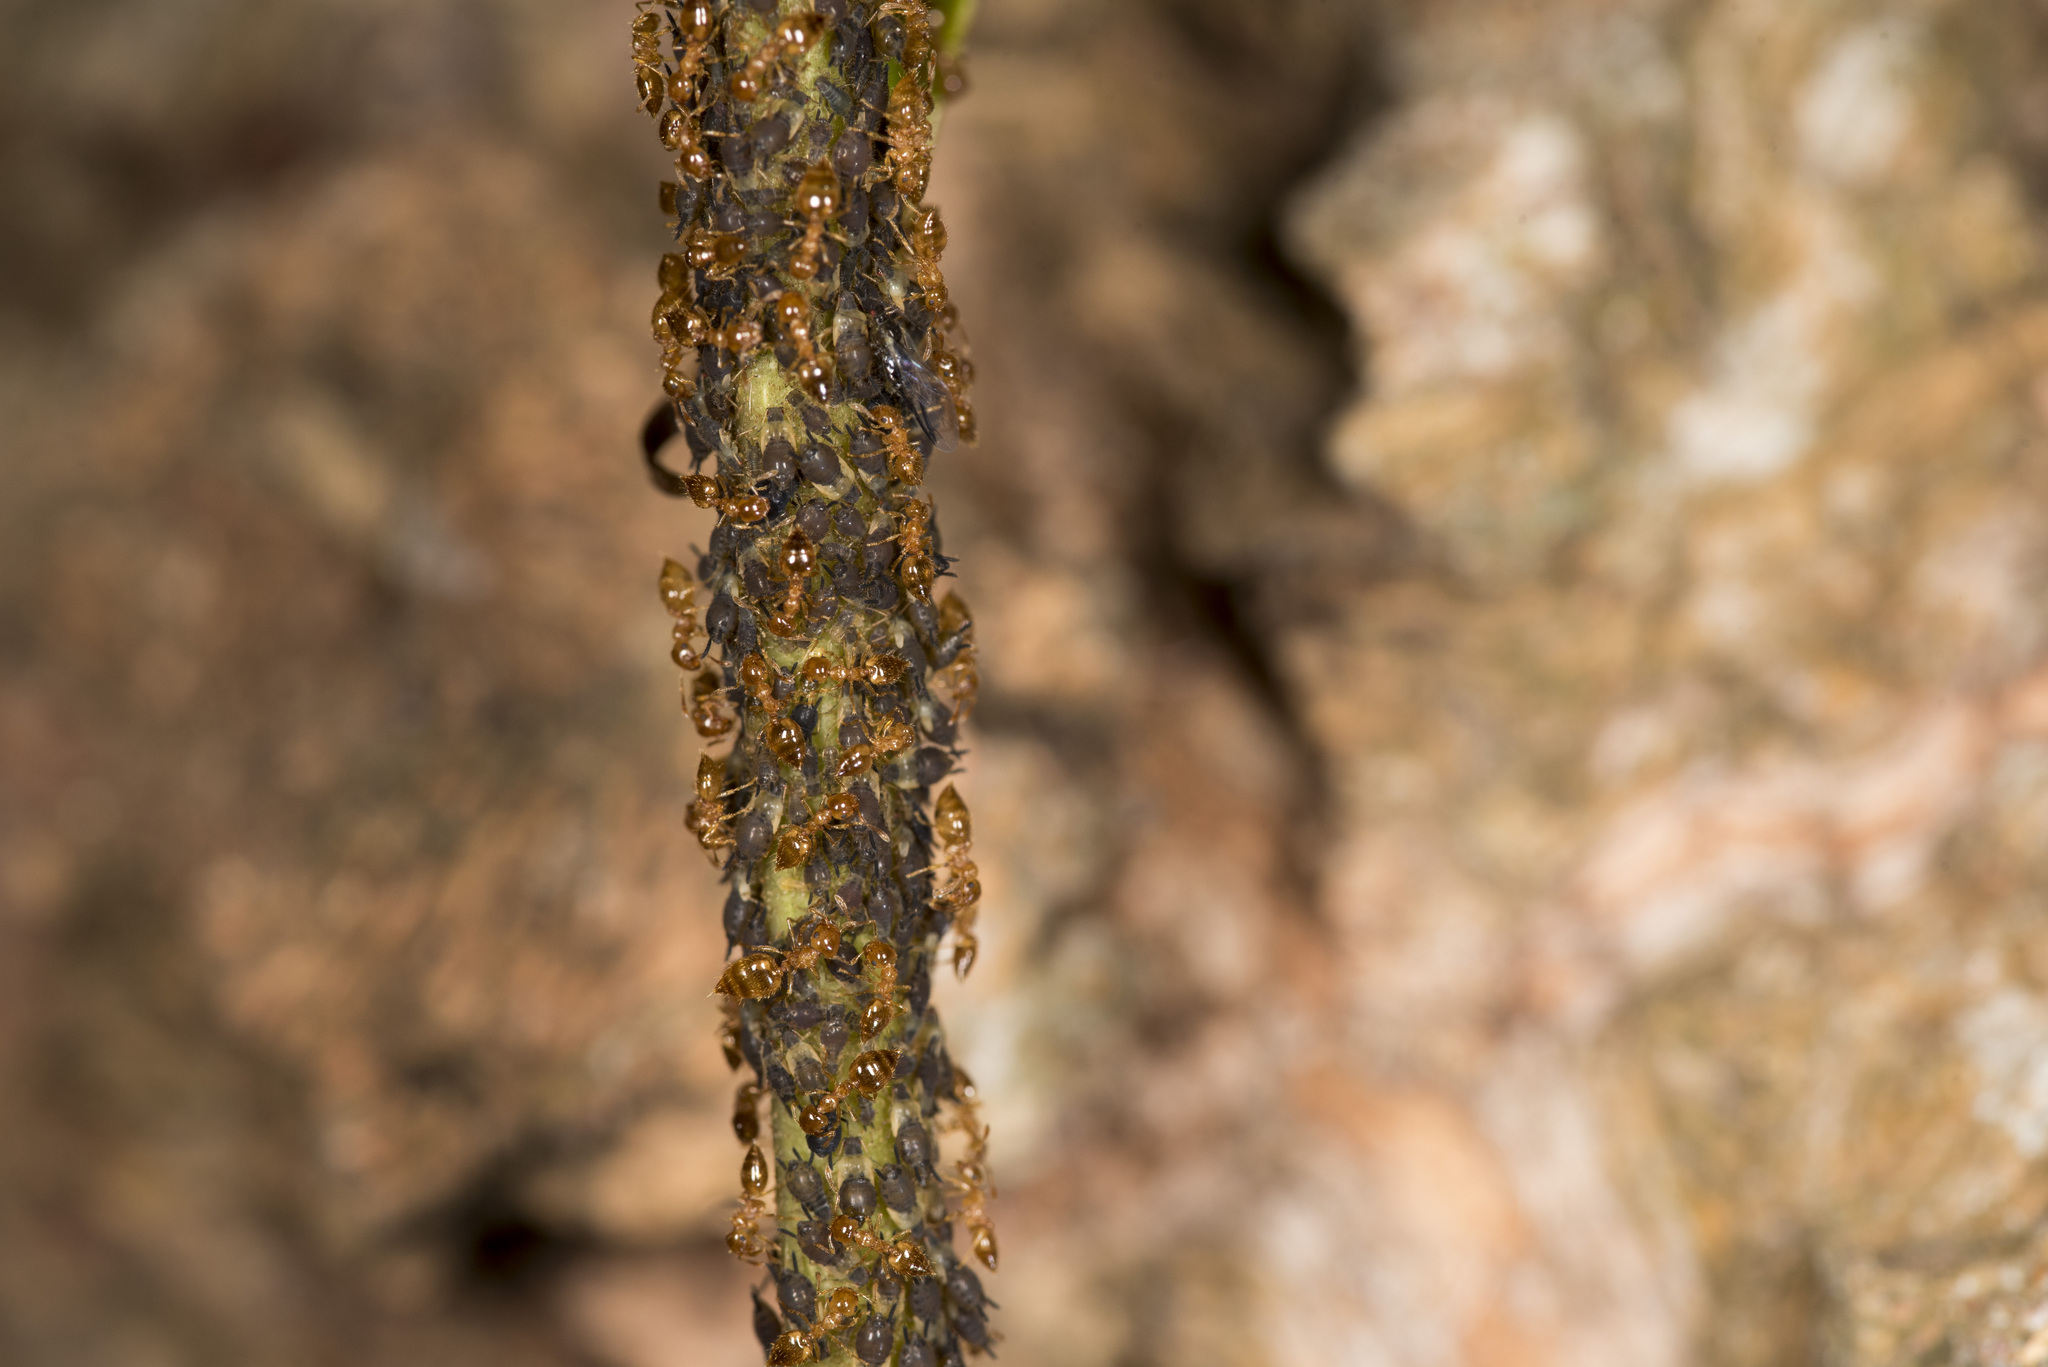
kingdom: Animalia
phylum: Arthropoda
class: Insecta
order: Hymenoptera
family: Formicidae
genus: Crematogaster
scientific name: Crematogaster osakensis
